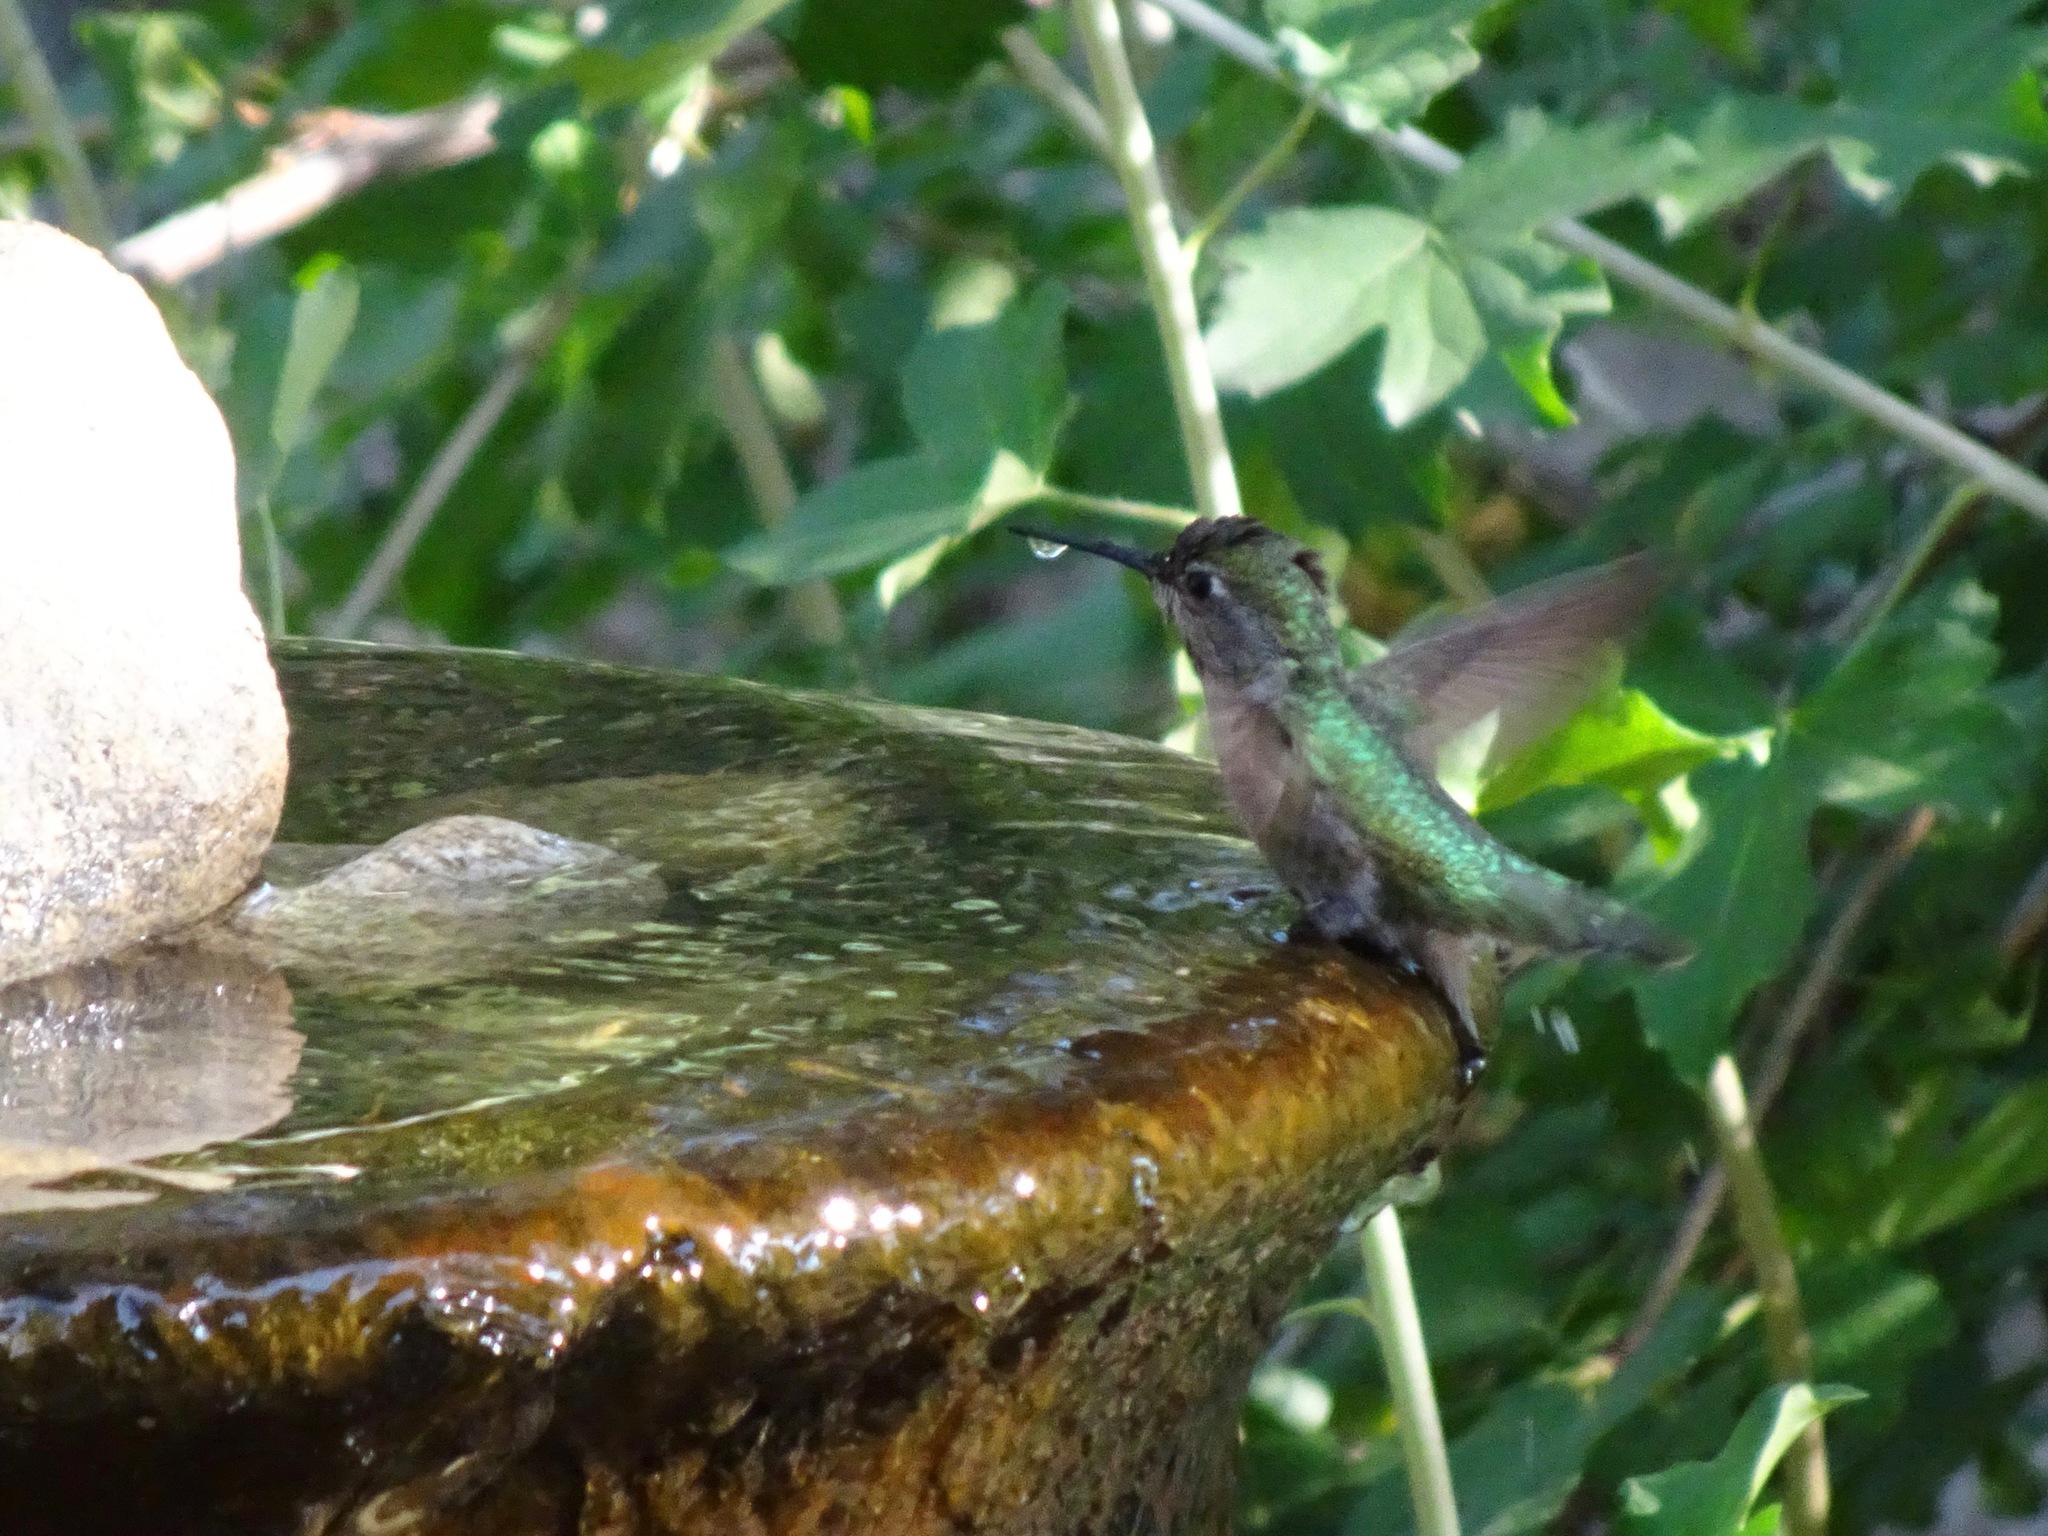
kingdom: Animalia
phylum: Chordata
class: Aves
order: Apodiformes
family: Trochilidae
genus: Calypte
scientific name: Calypte anna
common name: Anna's hummingbird
